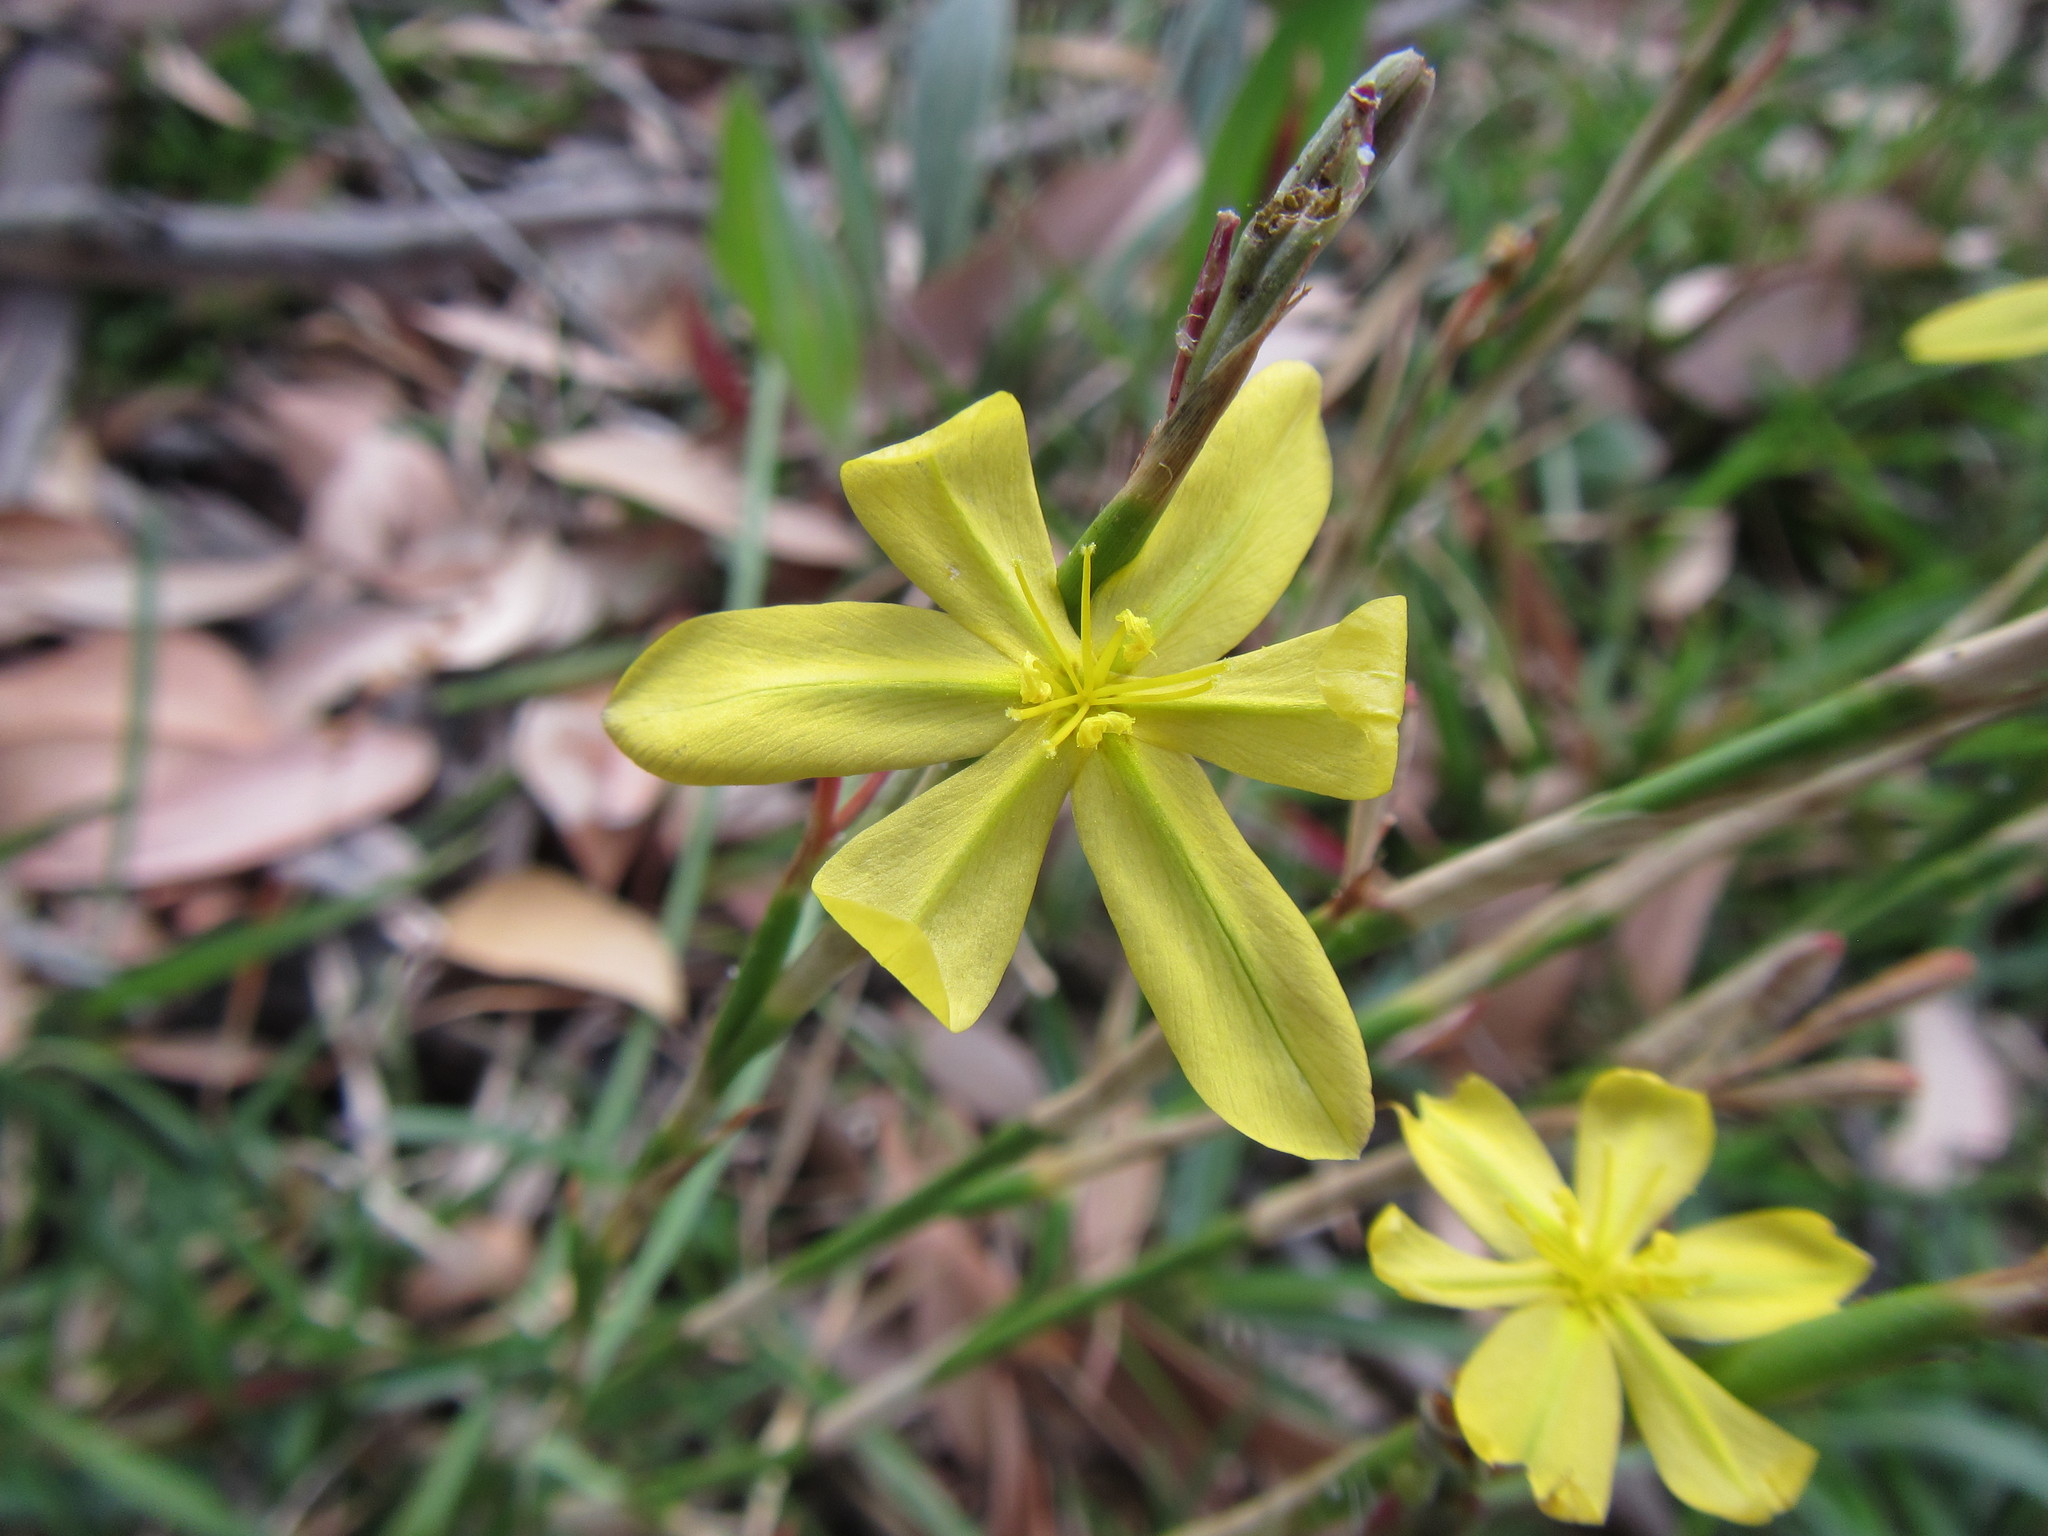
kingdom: Plantae
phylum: Tracheophyta
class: Liliopsida
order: Asparagales
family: Iridaceae
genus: Moraea
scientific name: Moraea lewisiae
